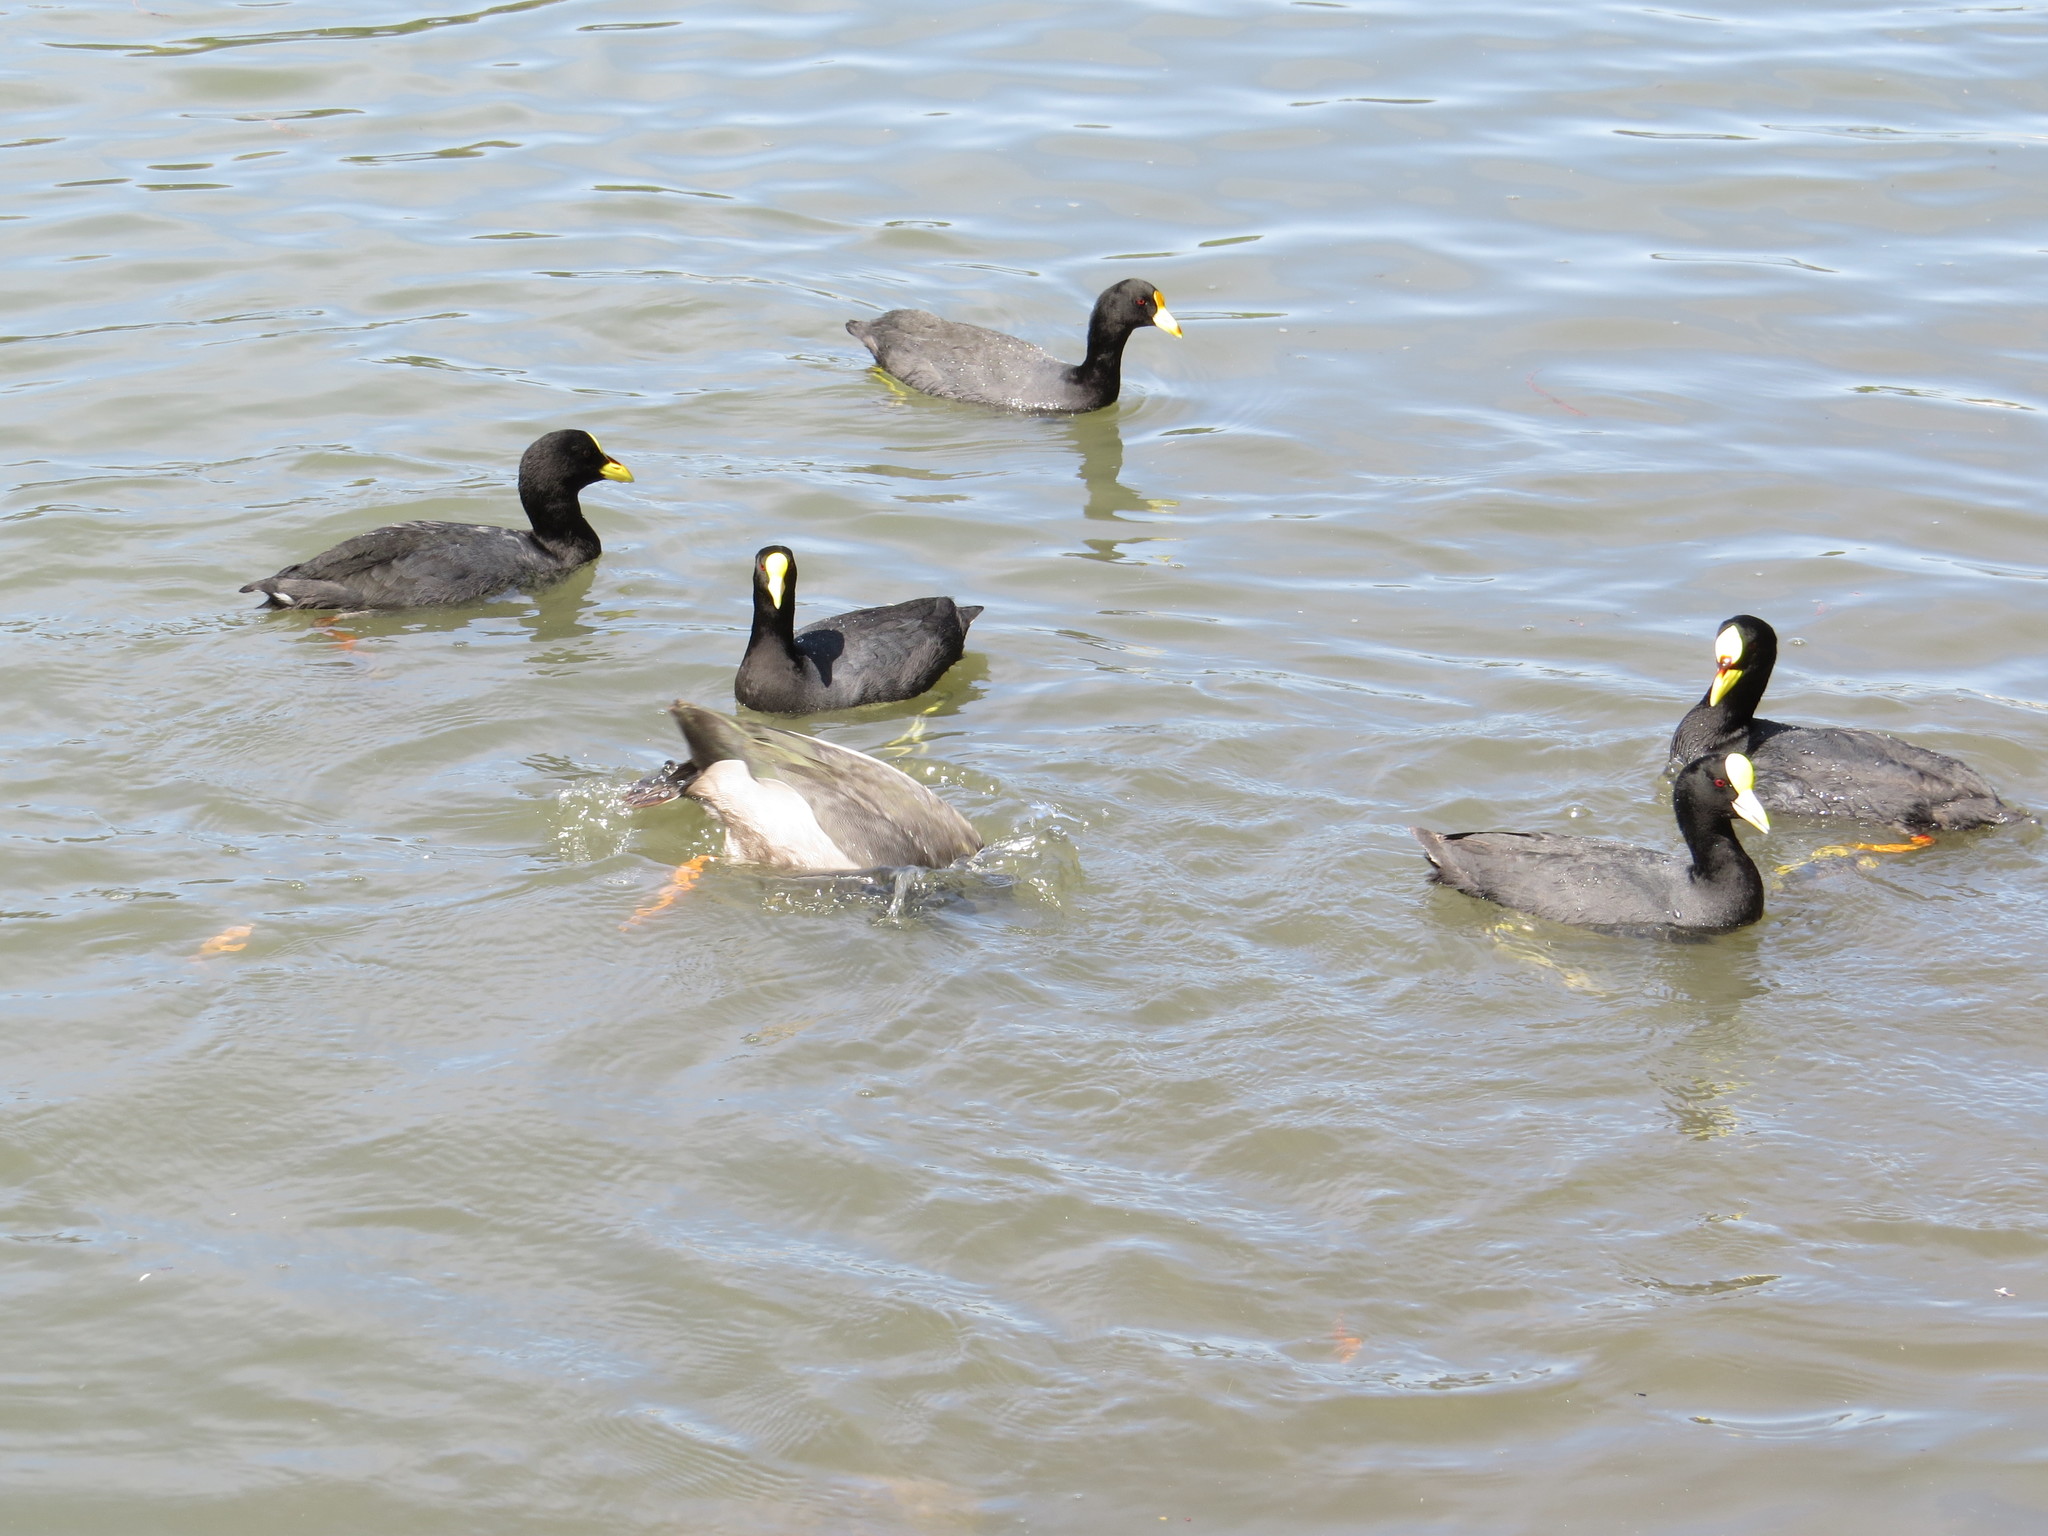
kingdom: Animalia
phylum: Chordata
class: Aves
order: Gruiformes
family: Rallidae
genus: Fulica
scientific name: Fulica leucoptera
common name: White-winged coot
